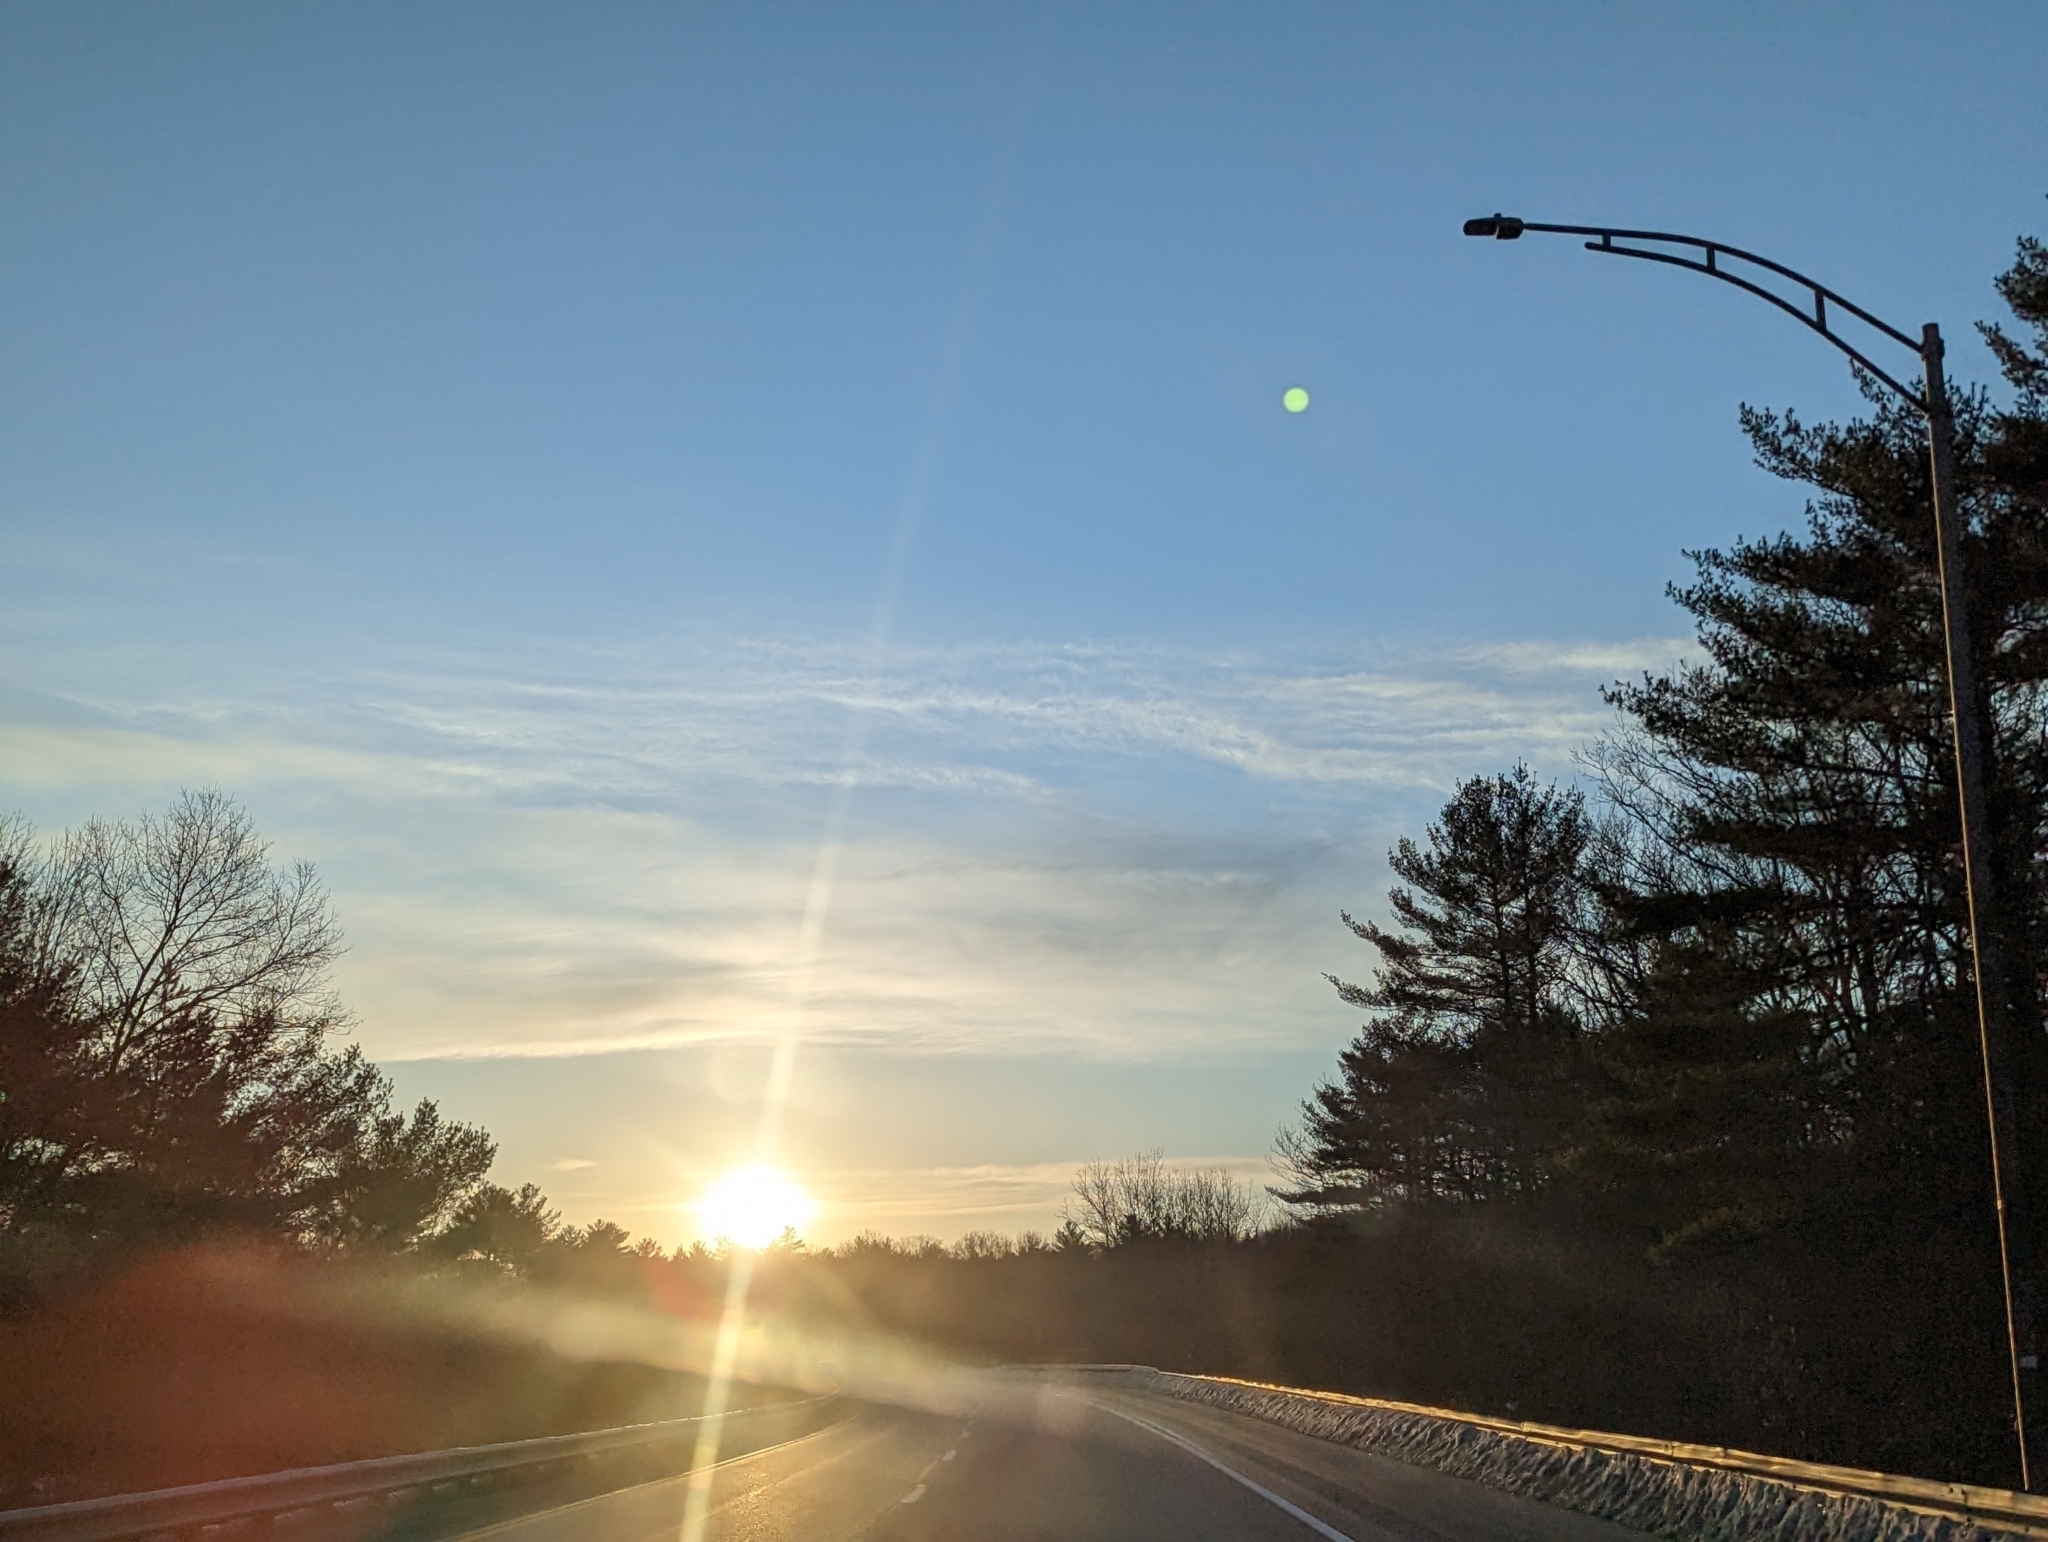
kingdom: Plantae
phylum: Tracheophyta
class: Pinopsida
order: Pinales
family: Pinaceae
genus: Pinus
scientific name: Pinus strobus
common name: Weymouth pine
